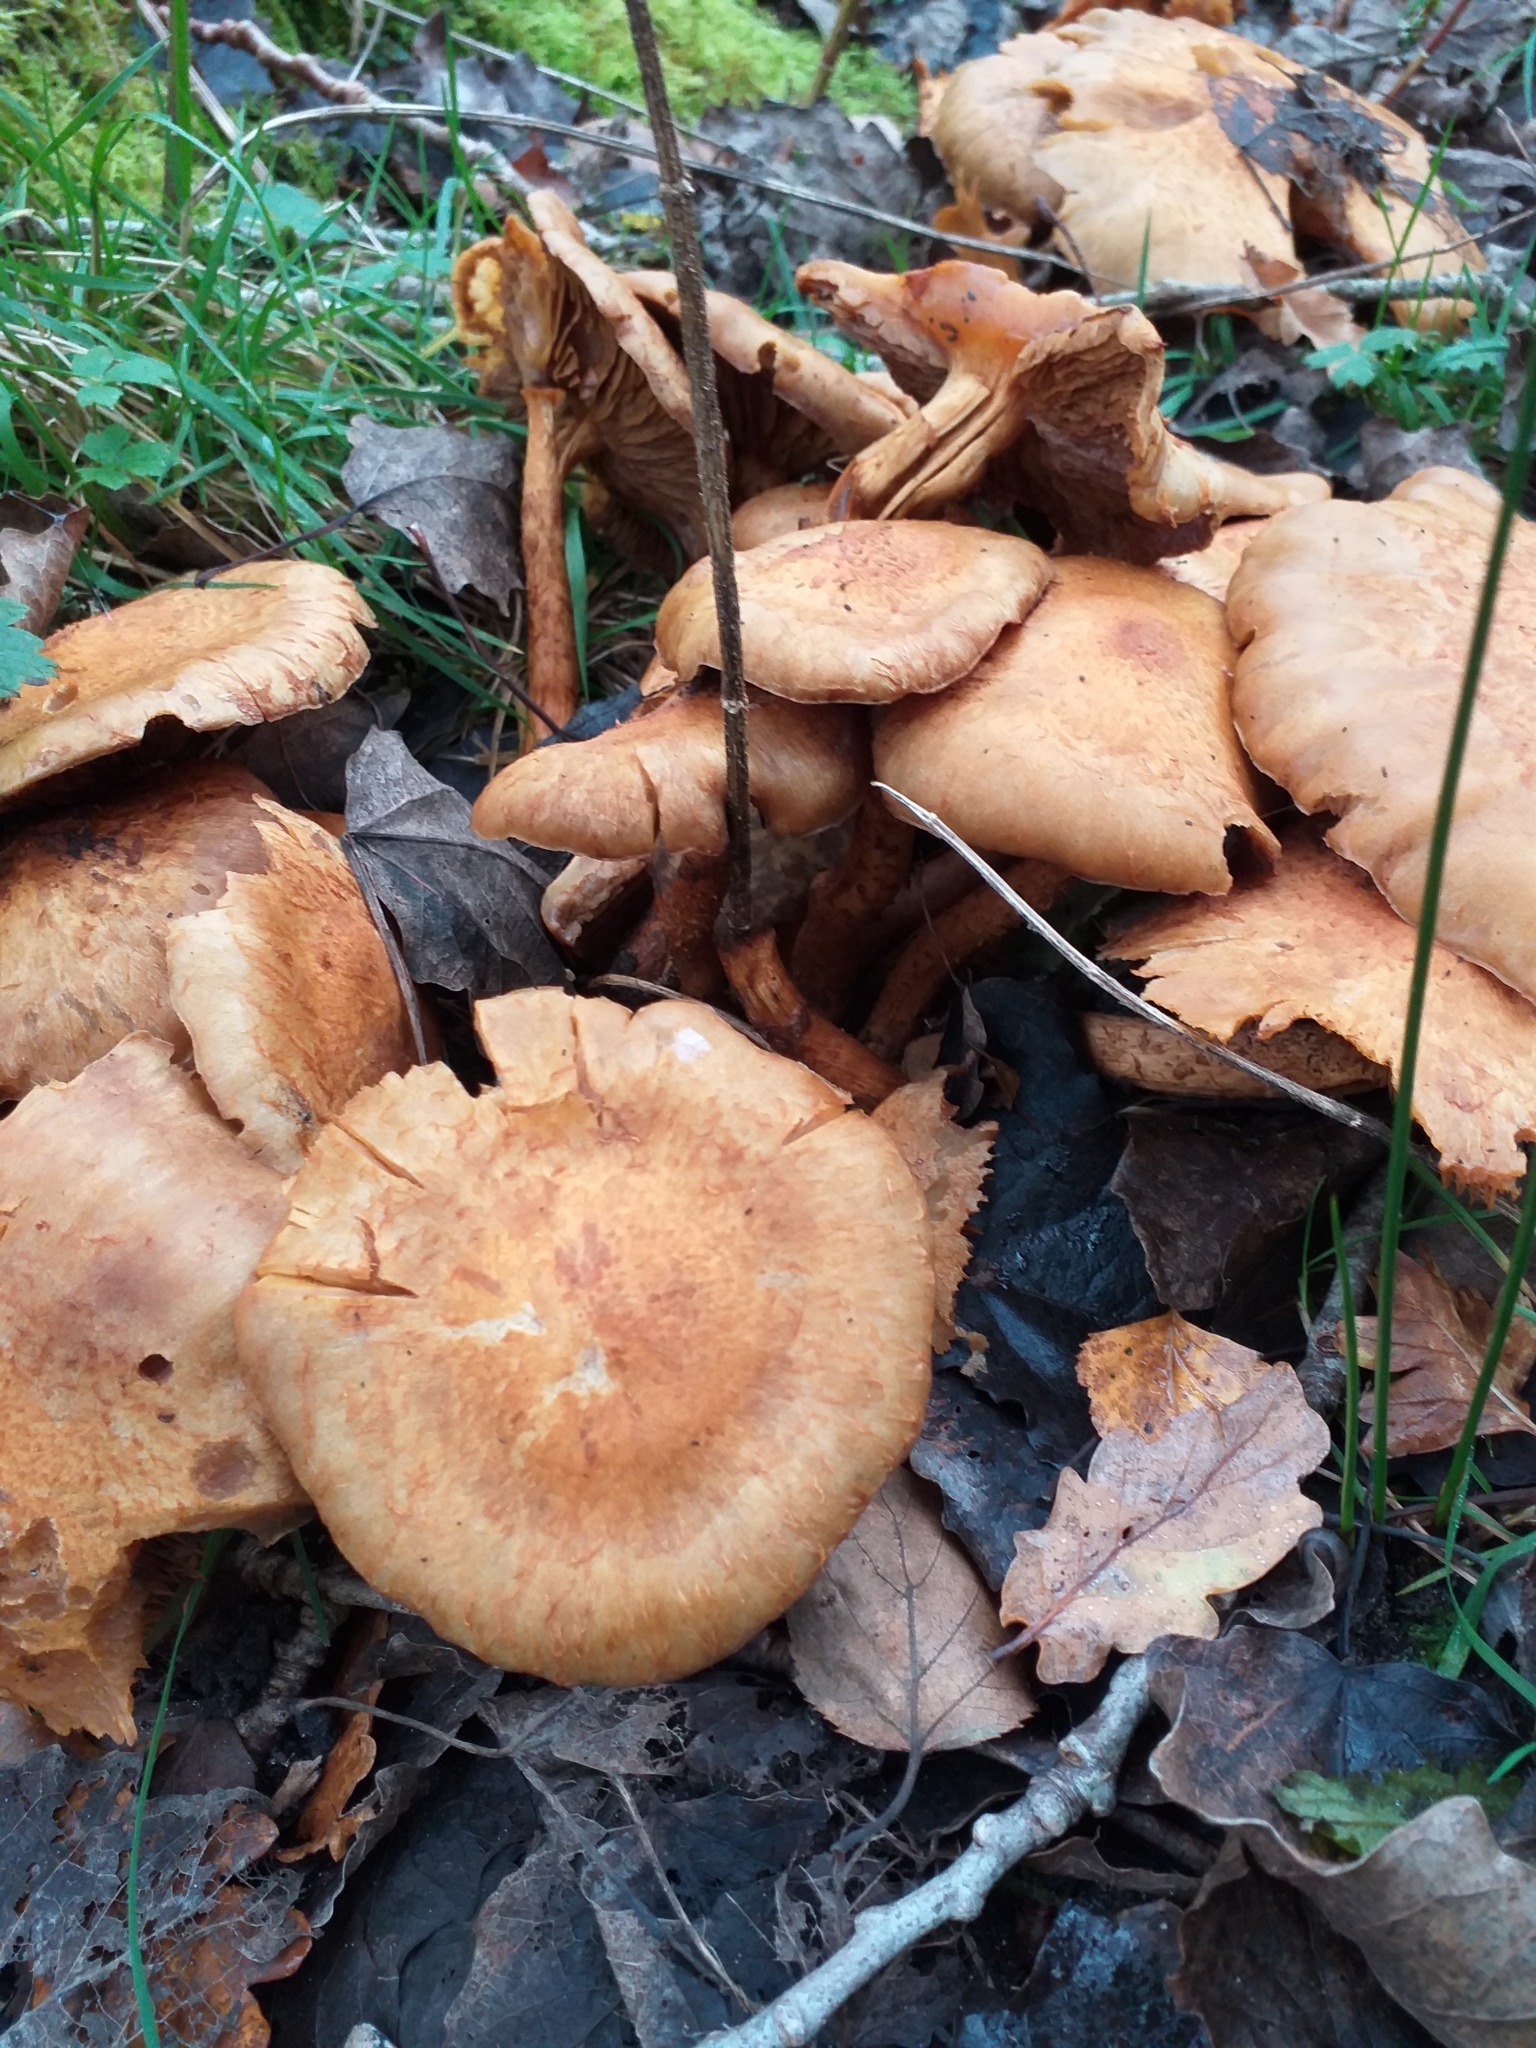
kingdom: Fungi
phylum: Basidiomycota
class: Agaricomycetes
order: Agaricales
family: Strophariaceae
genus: Pholiota
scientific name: Pholiota squarrosa
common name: Shaggy pholiota
